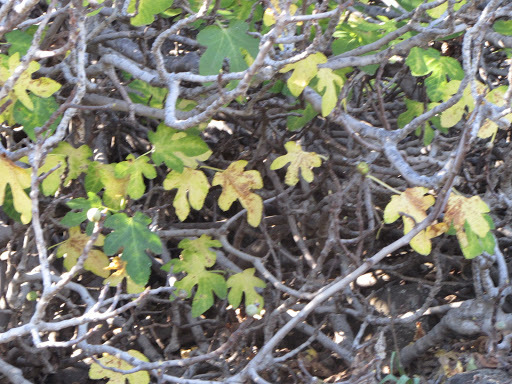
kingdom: Plantae
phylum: Tracheophyta
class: Magnoliopsida
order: Rosales
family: Moraceae
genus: Ficus
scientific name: Ficus carica
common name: Fig
